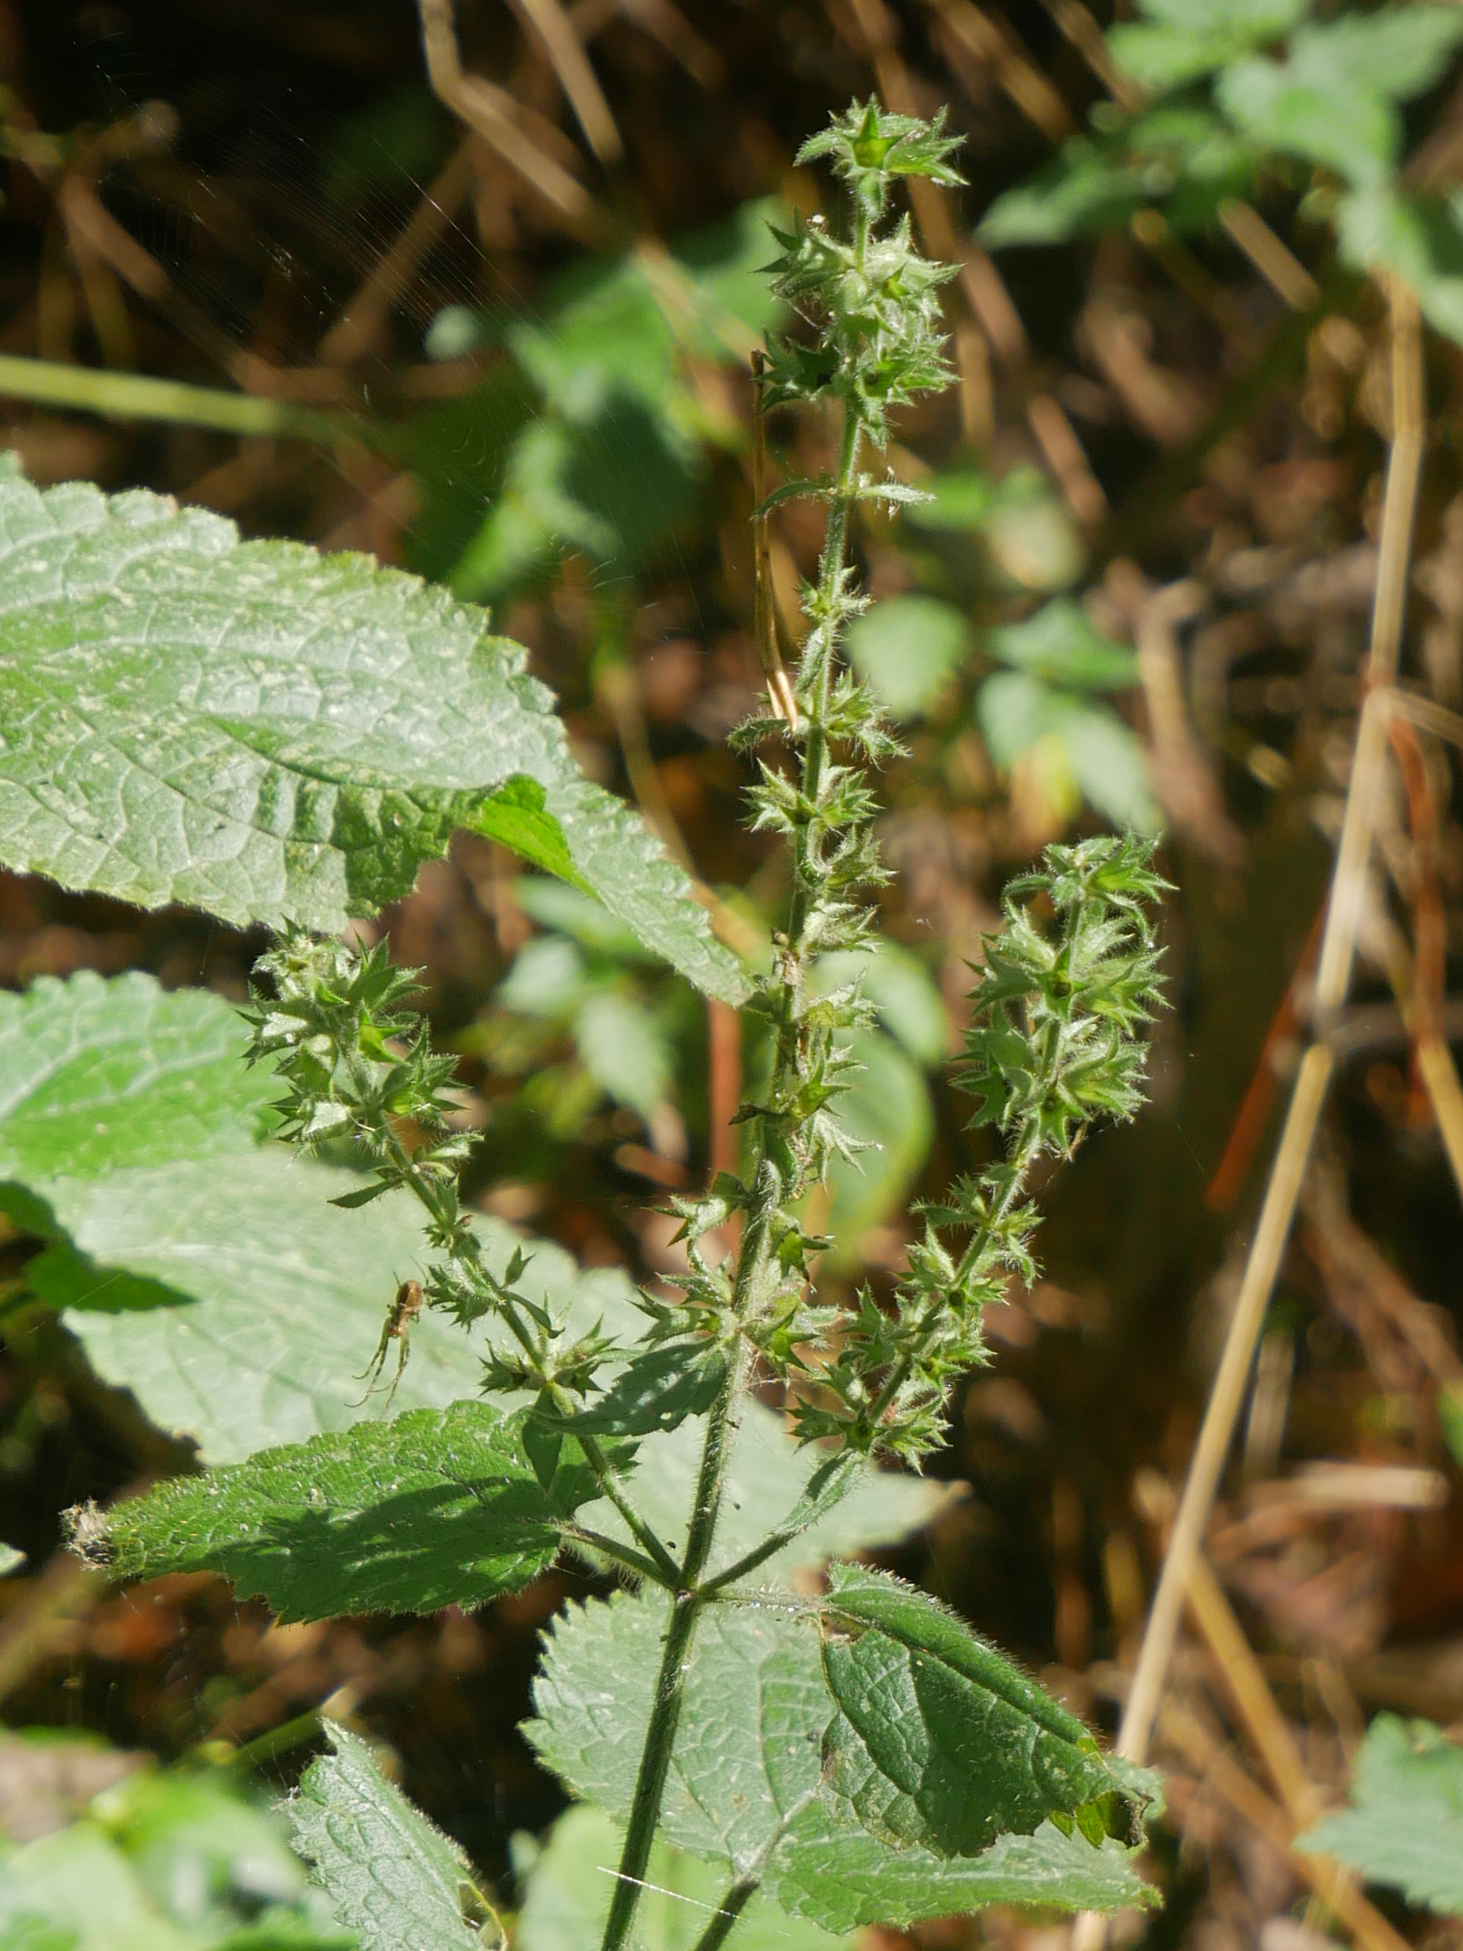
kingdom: Plantae
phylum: Tracheophyta
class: Magnoliopsida
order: Lamiales
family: Lamiaceae
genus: Stachys
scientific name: Stachys sylvatica
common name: Hedge woundwort
